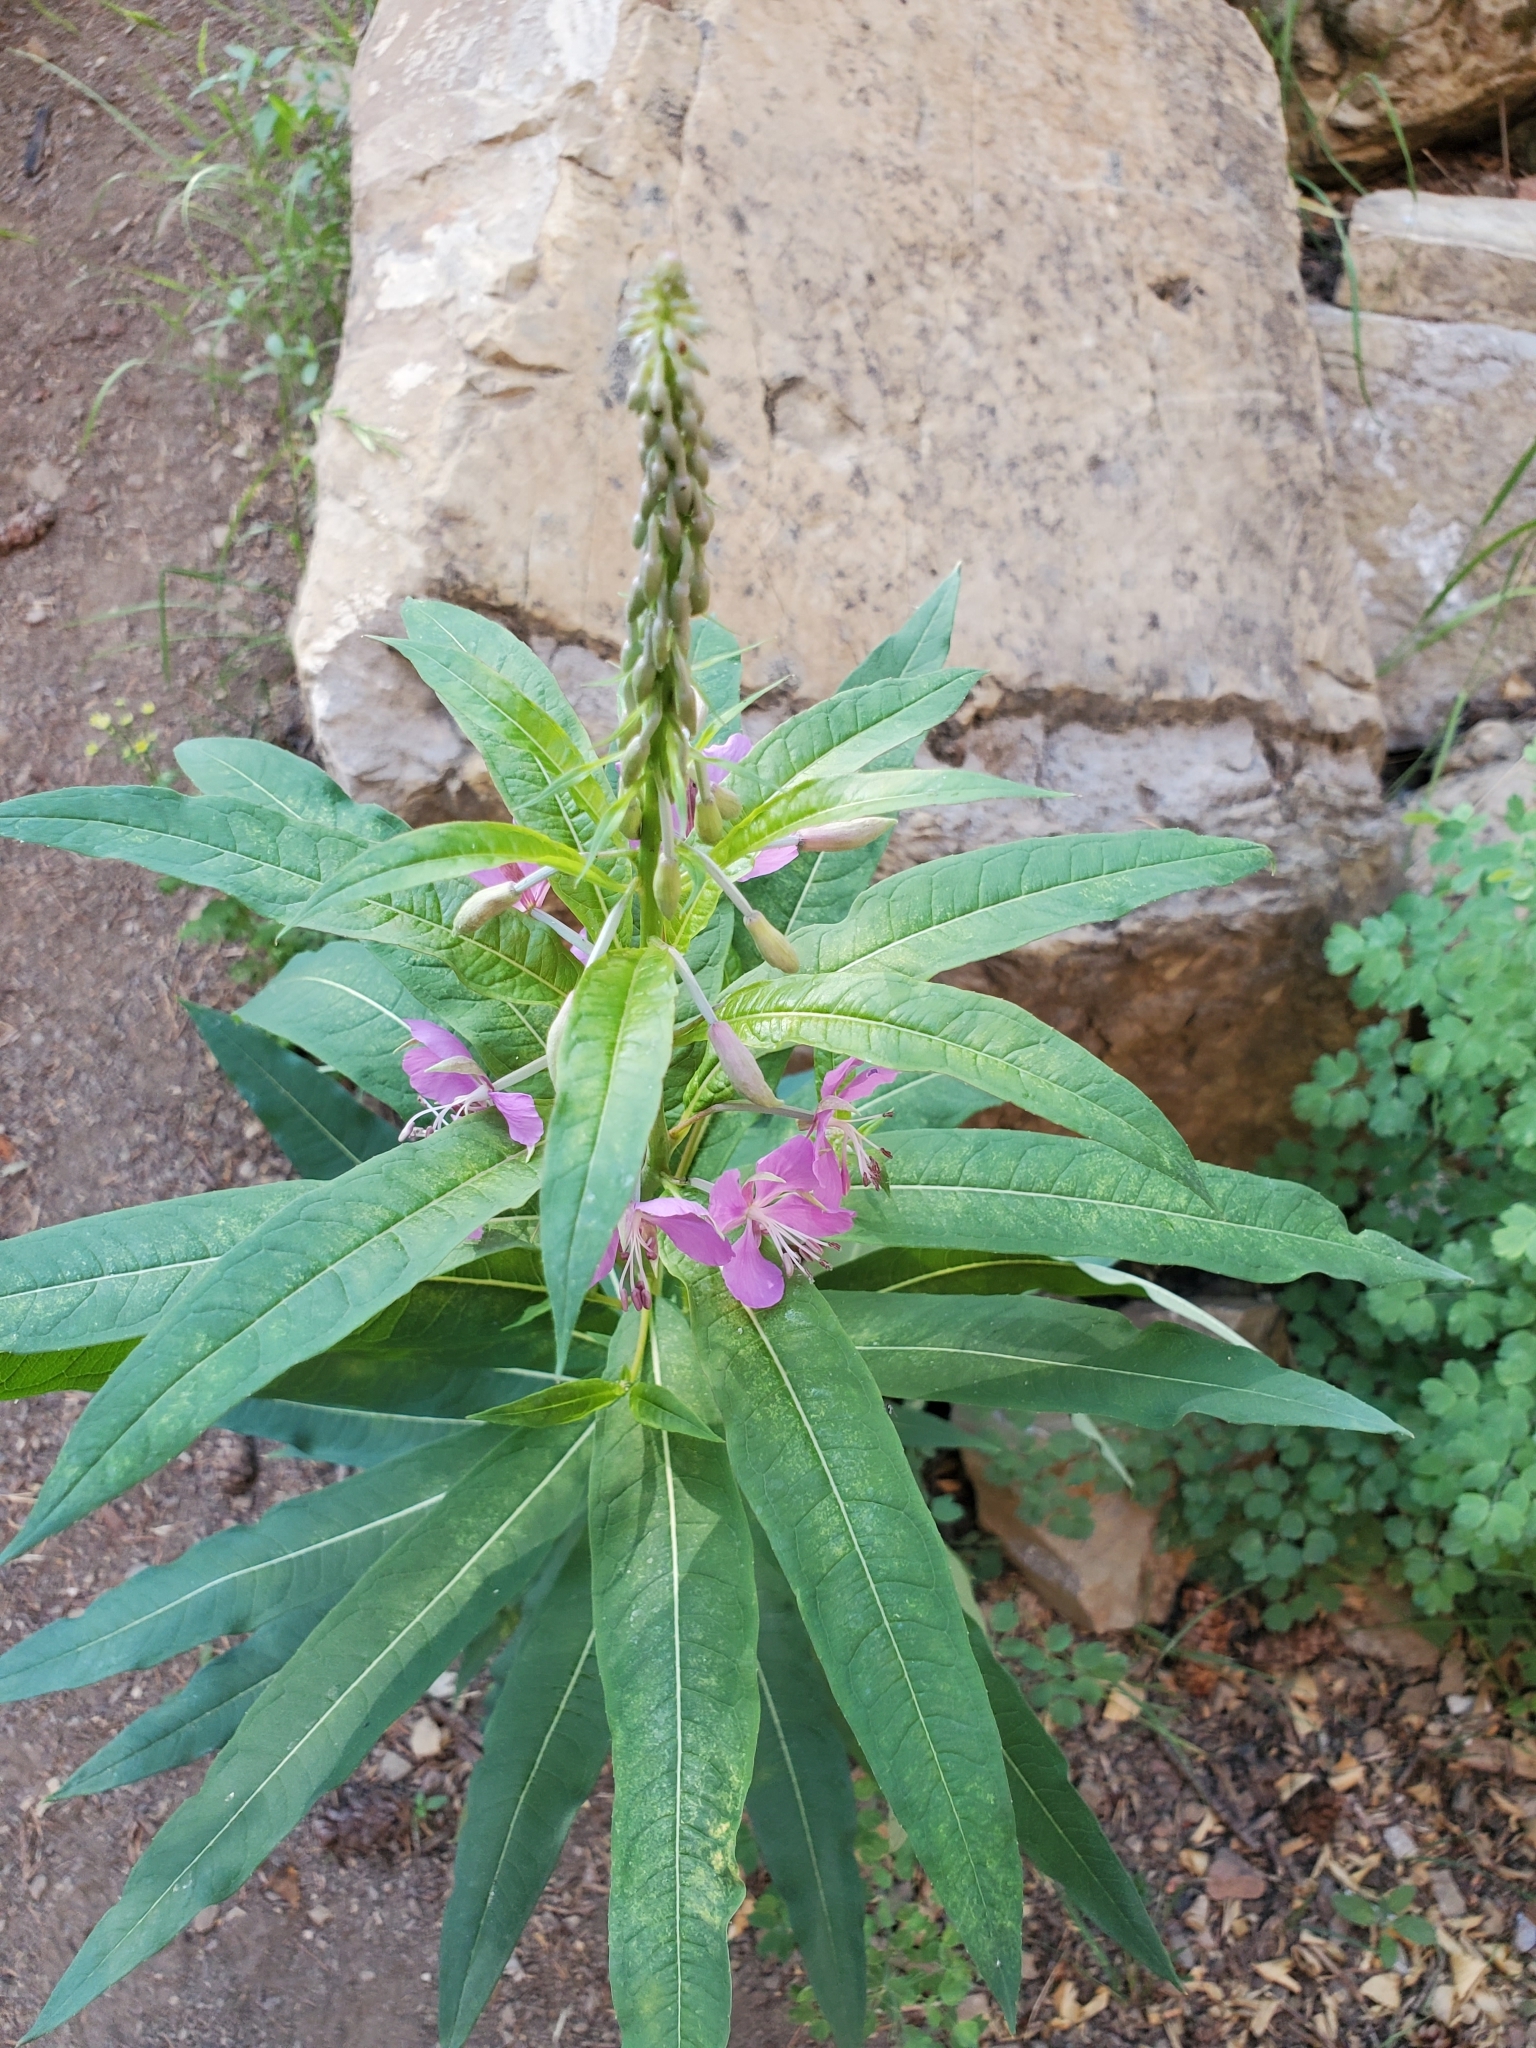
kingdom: Plantae
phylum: Tracheophyta
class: Magnoliopsida
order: Myrtales
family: Onagraceae
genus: Chamaenerion
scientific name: Chamaenerion angustifolium
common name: Fireweed
